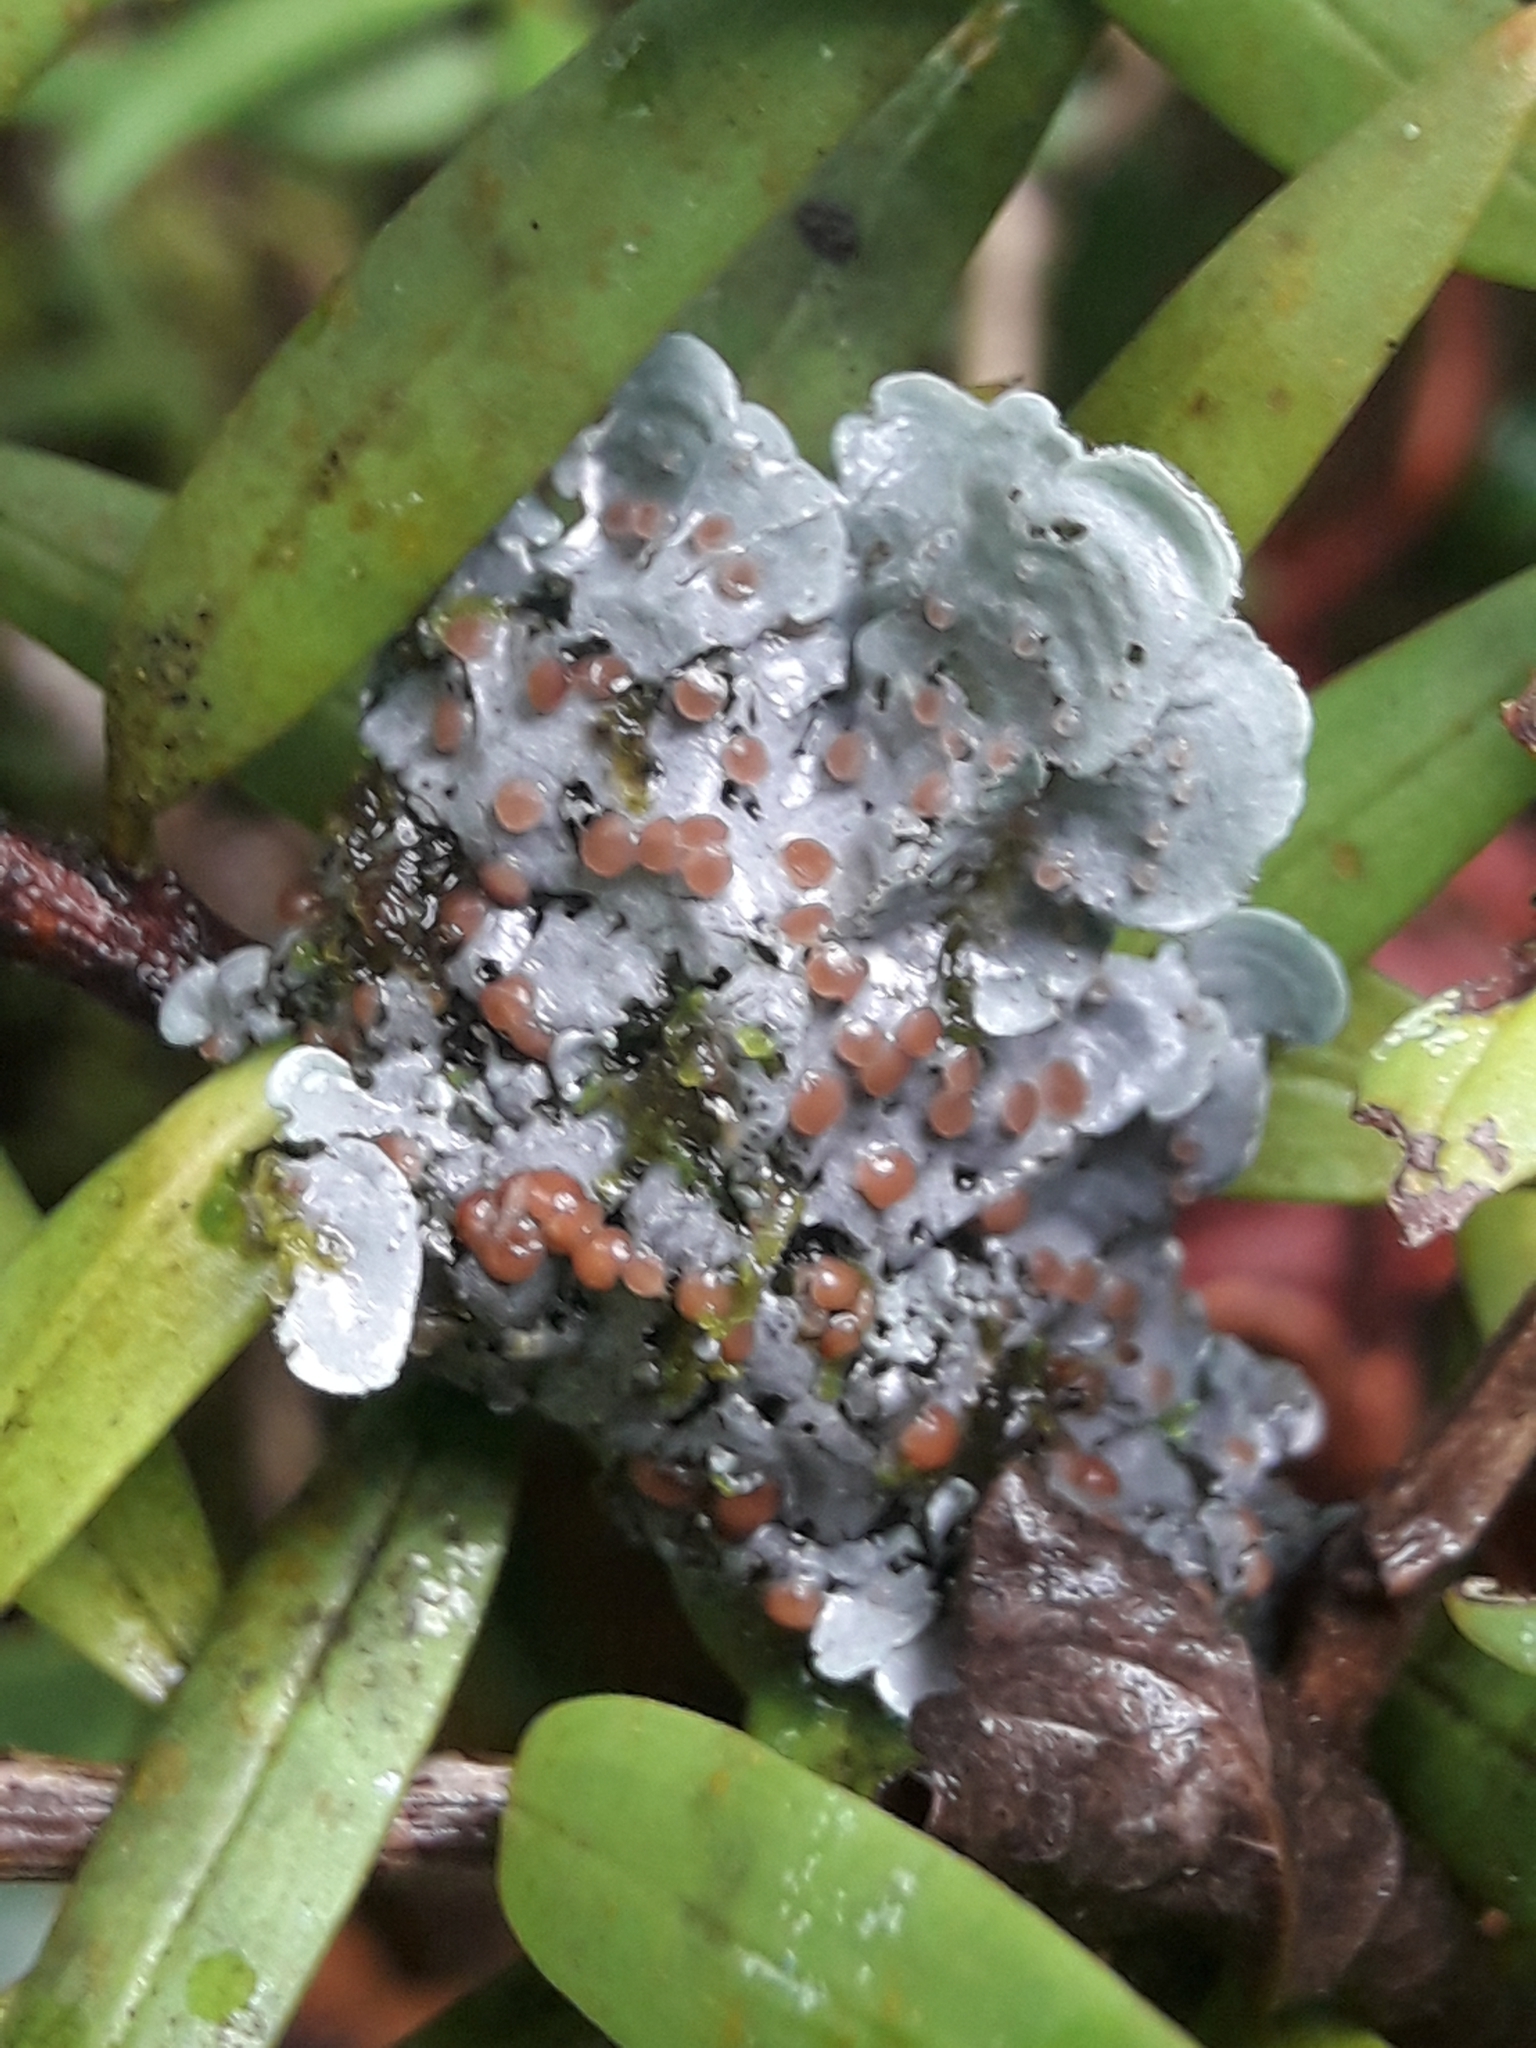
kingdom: Fungi
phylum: Ascomycota
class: Lecanoromycetes
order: Peltigerales
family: Pannariaceae
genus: Degelia
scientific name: Degelia gayana
